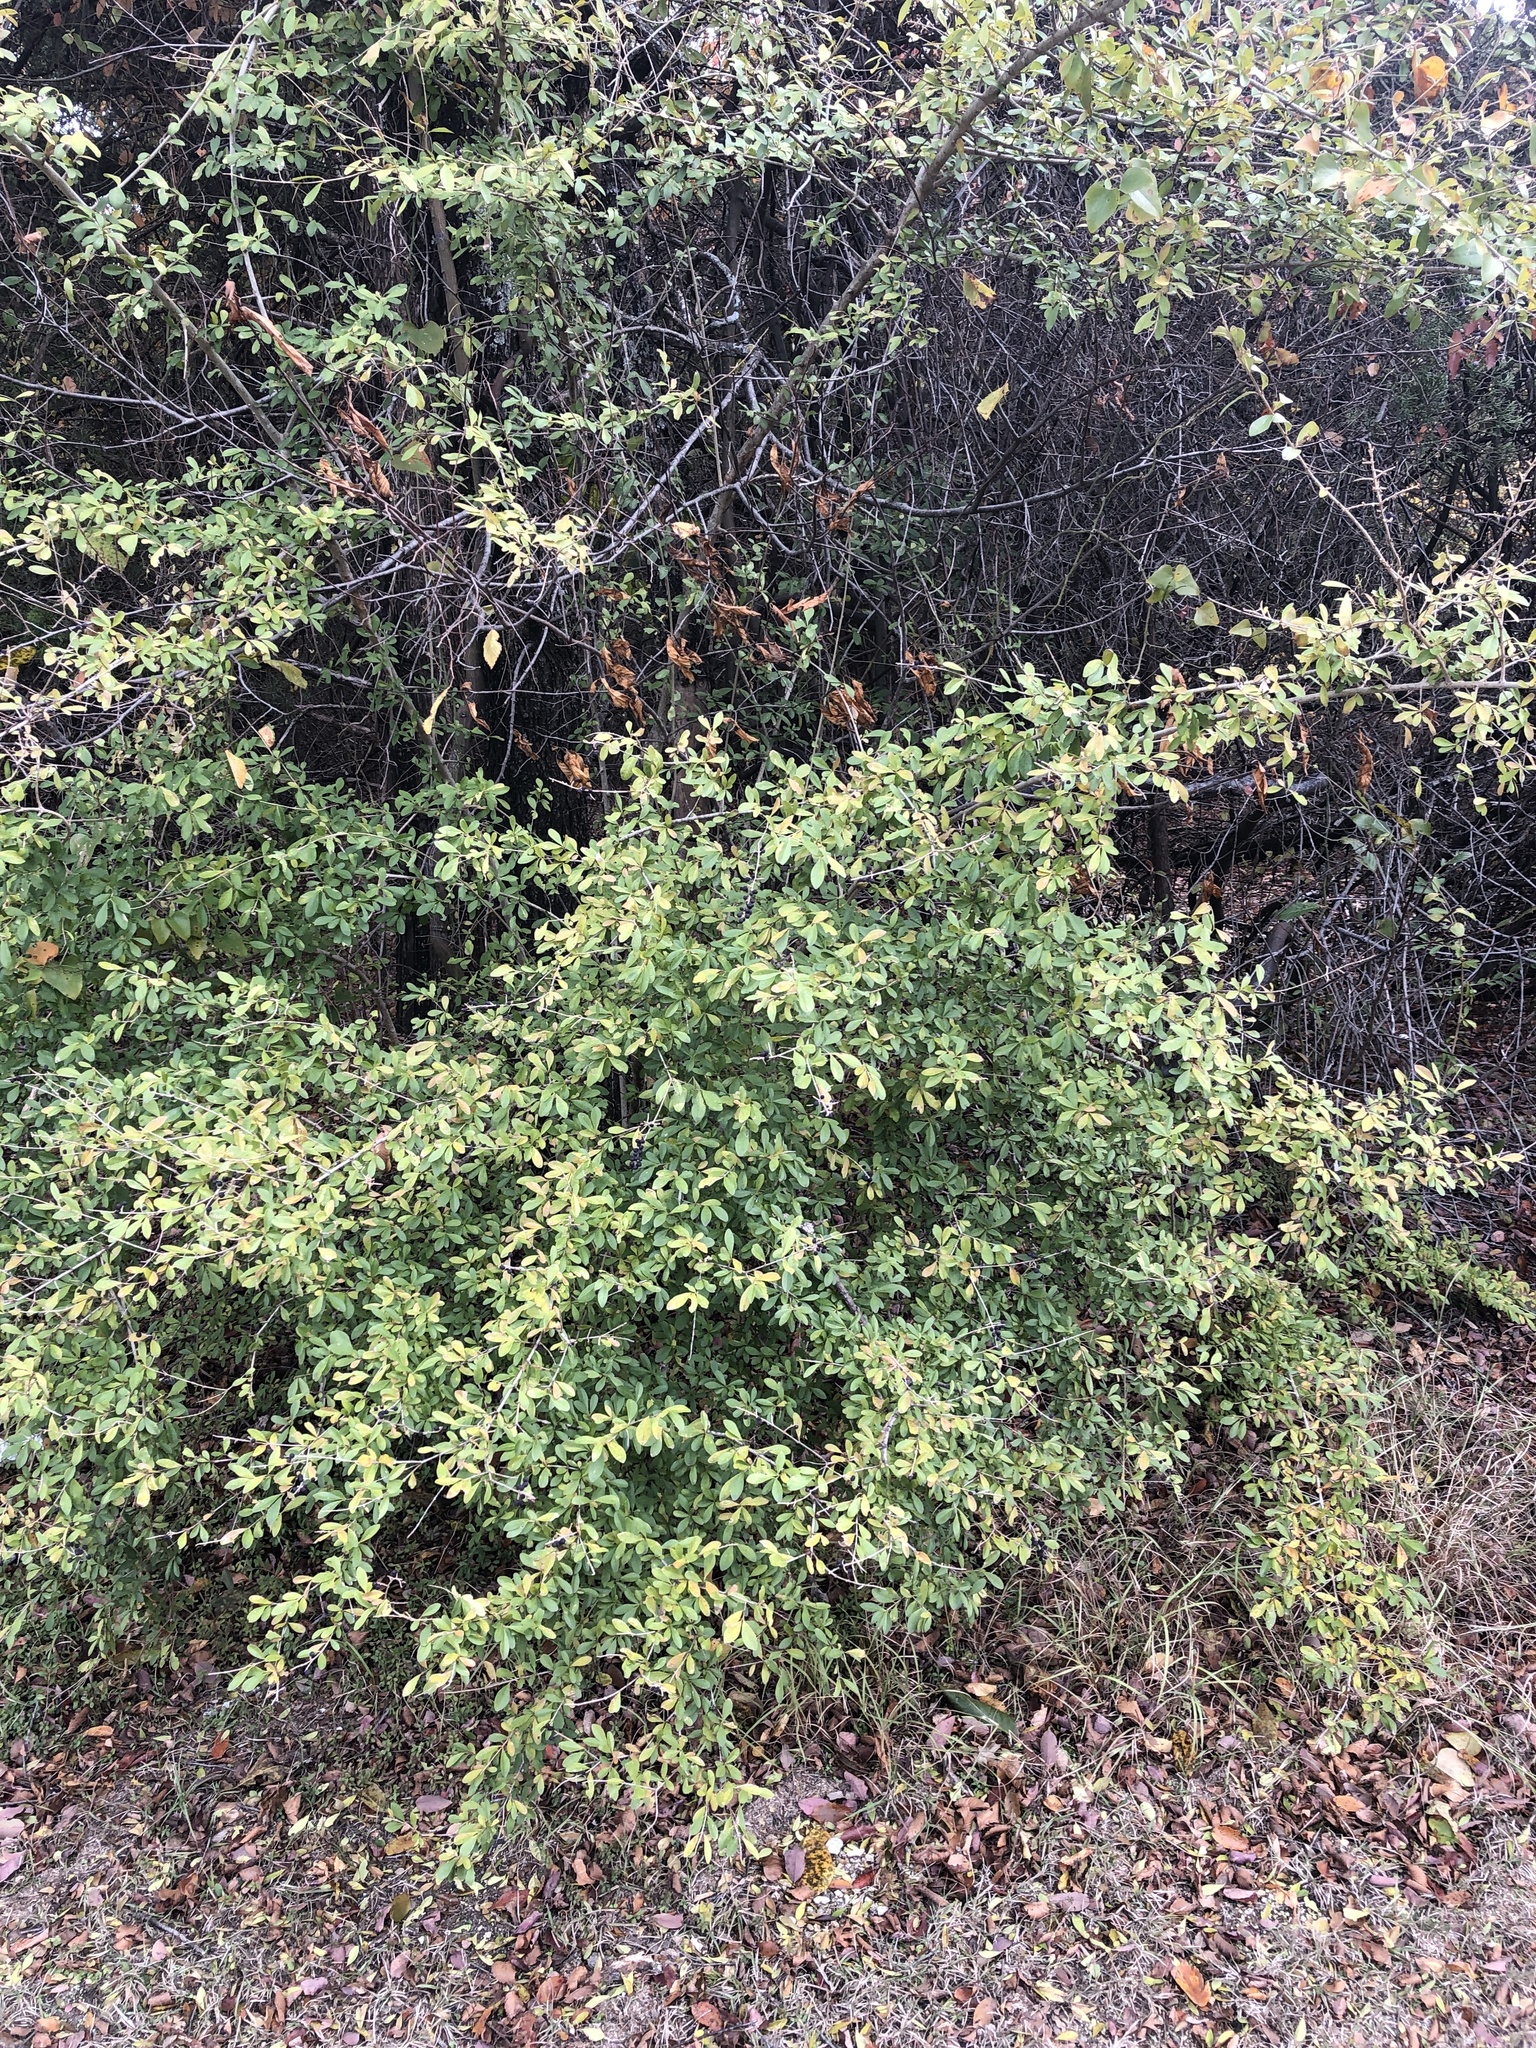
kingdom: Plantae
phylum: Tracheophyta
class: Magnoliopsida
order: Lamiales
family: Oleaceae
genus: Ligustrum
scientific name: Ligustrum quihoui
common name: Waxyleaf privet
